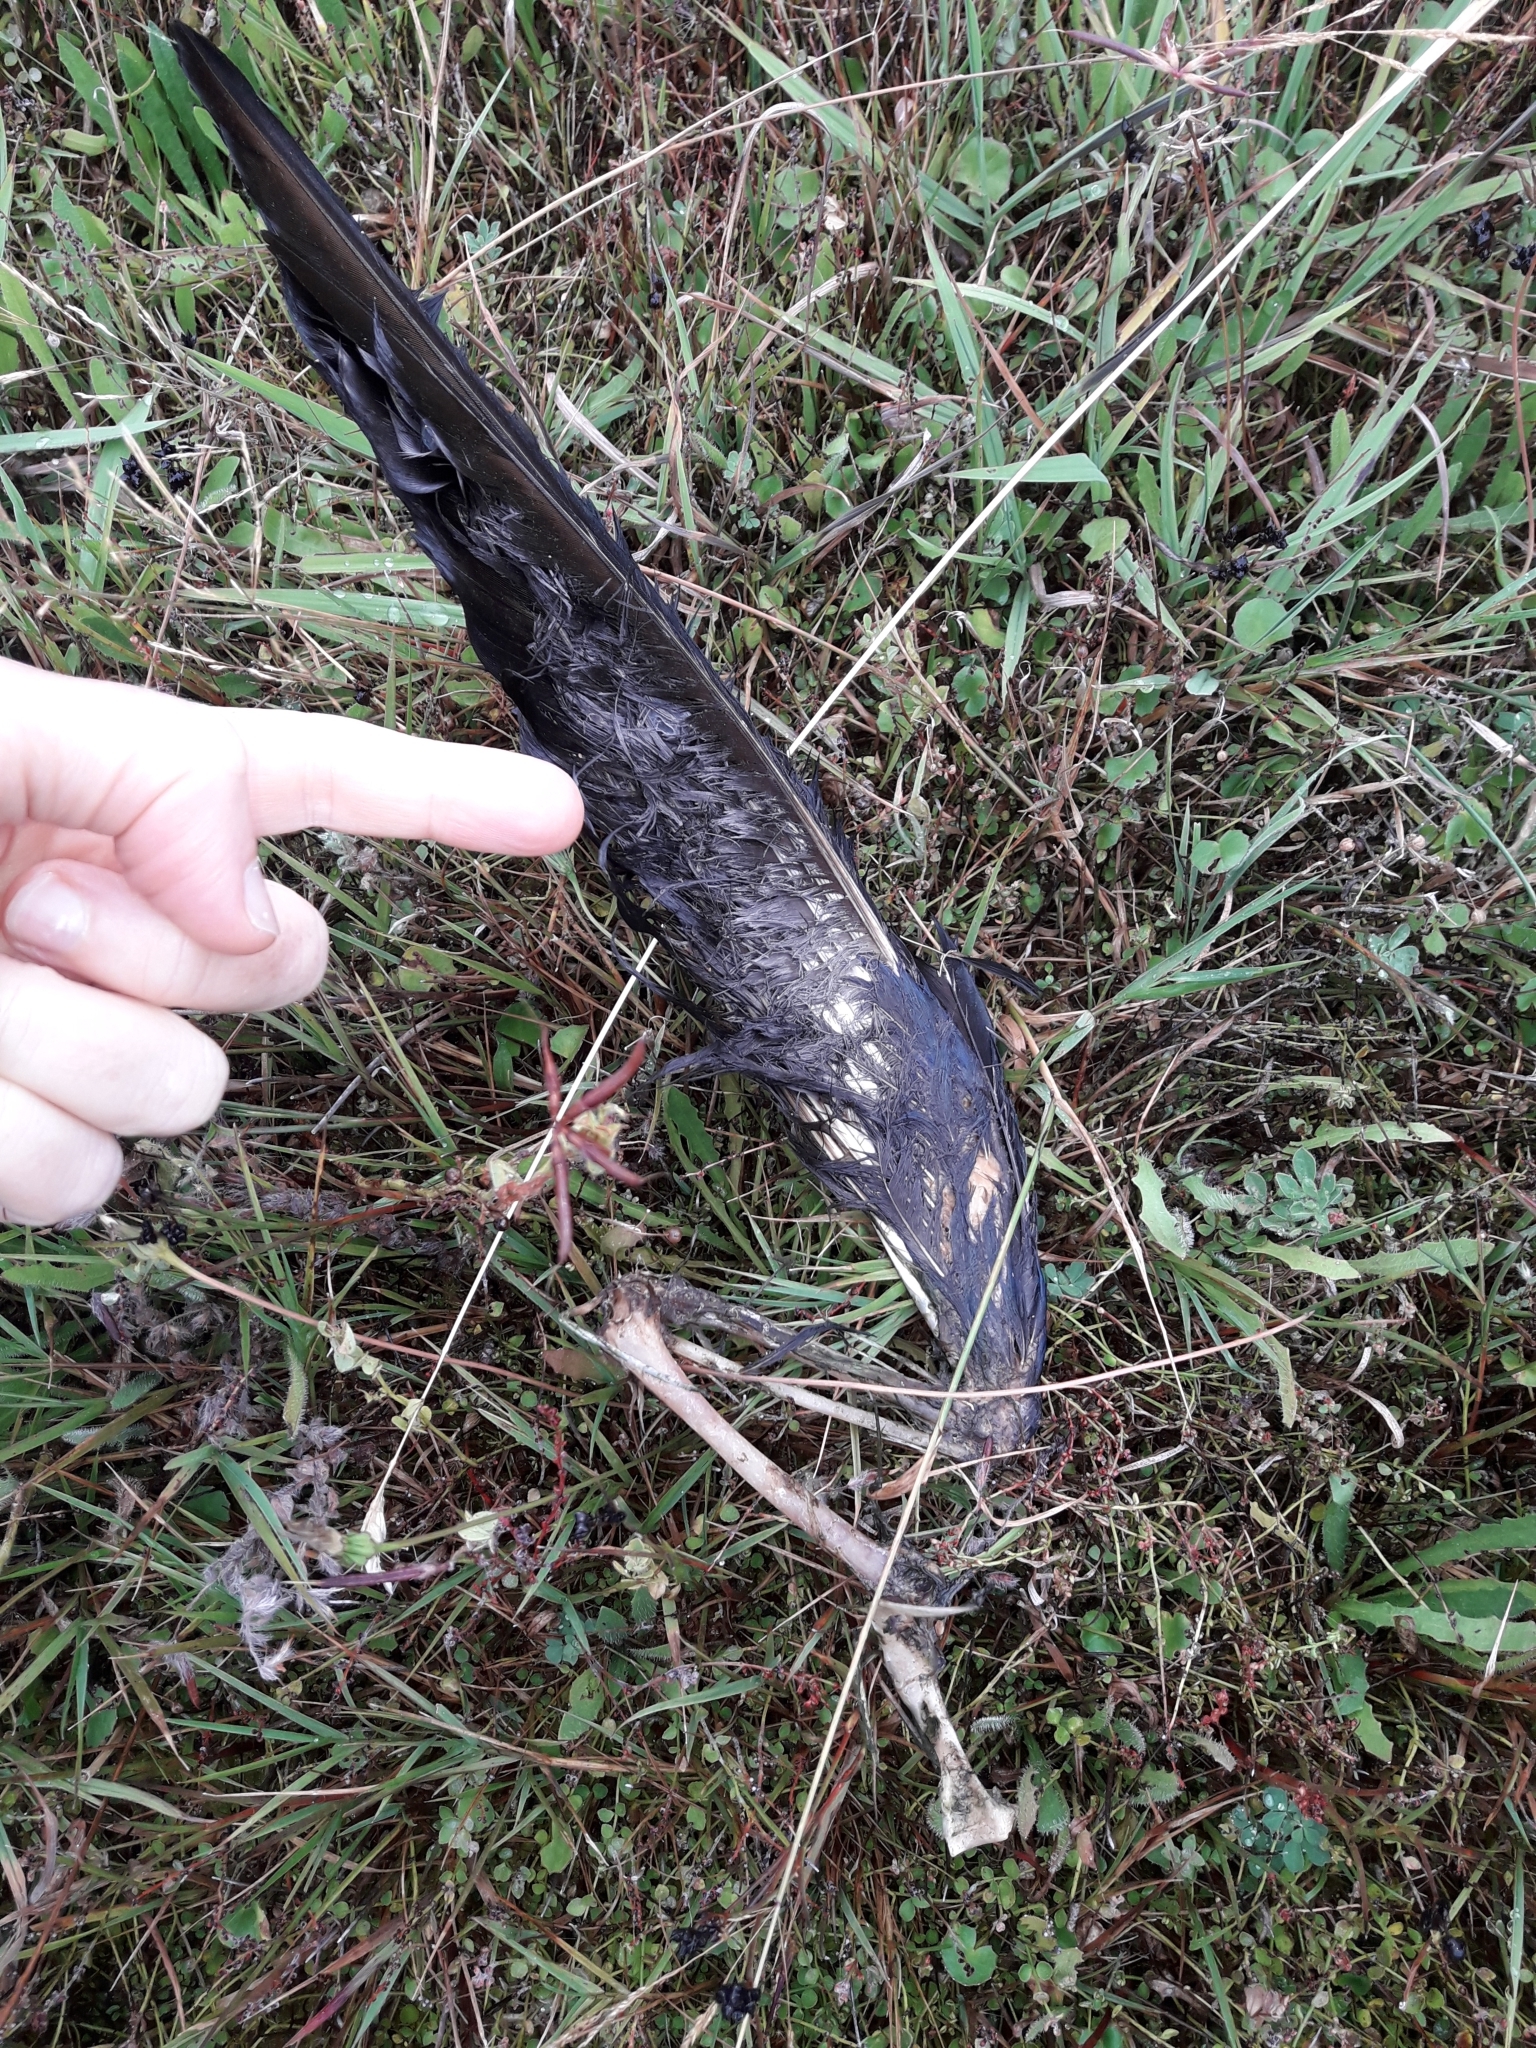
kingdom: Animalia
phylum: Chordata
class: Aves
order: Gruiformes
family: Rallidae
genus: Porphyrio
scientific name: Porphyrio melanotus
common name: Australasian swamphen
